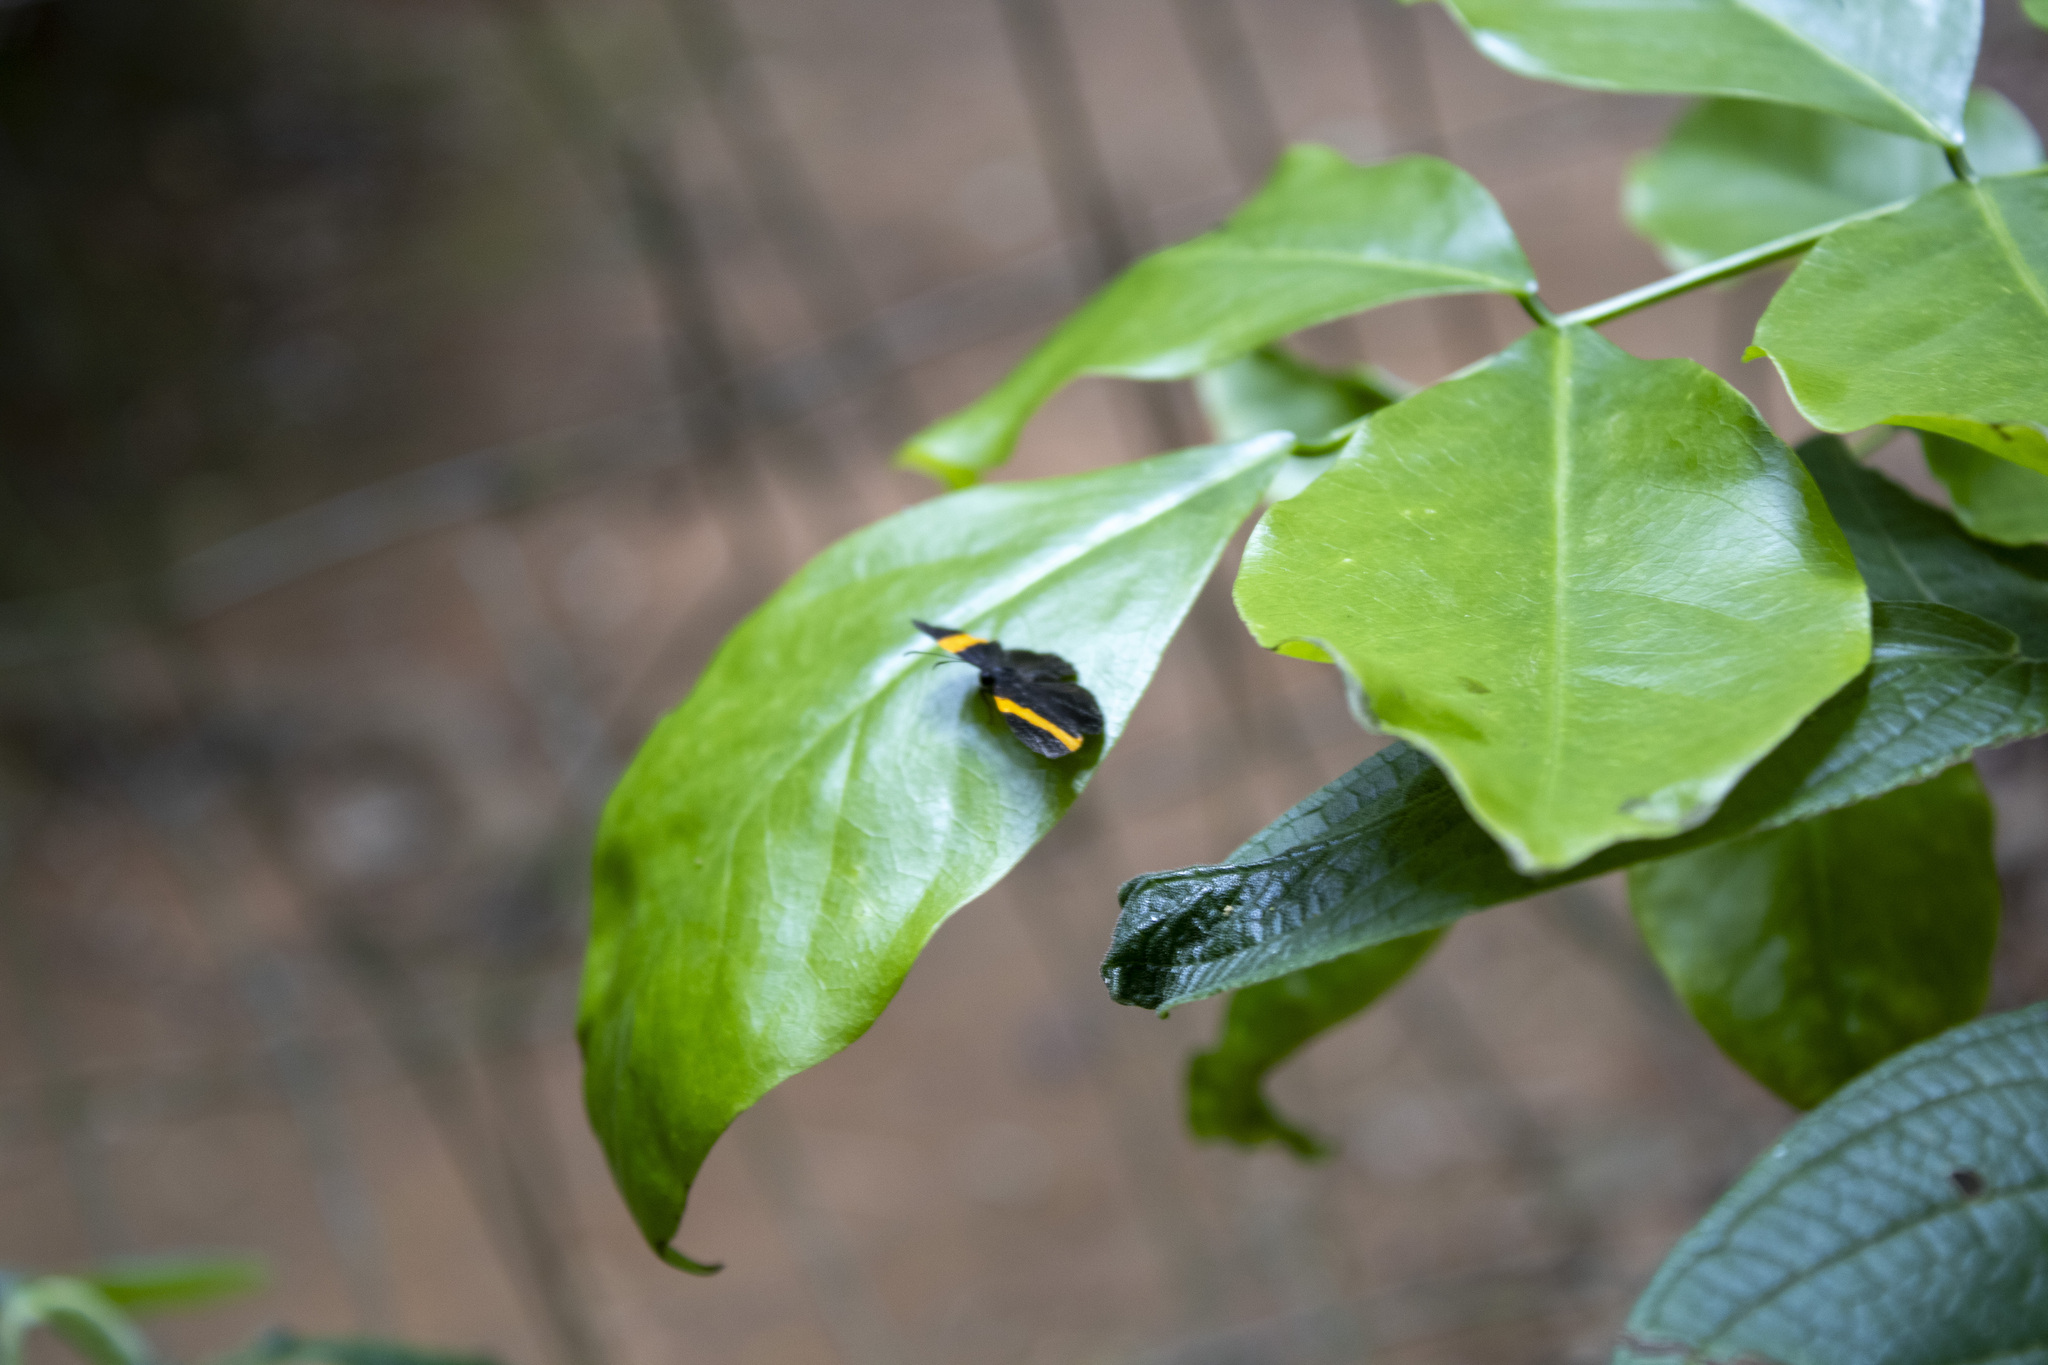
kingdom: Animalia
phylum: Arthropoda
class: Insecta
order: Lepidoptera
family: Riodinidae
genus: Pirascca
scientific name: Pirascca sagaris
